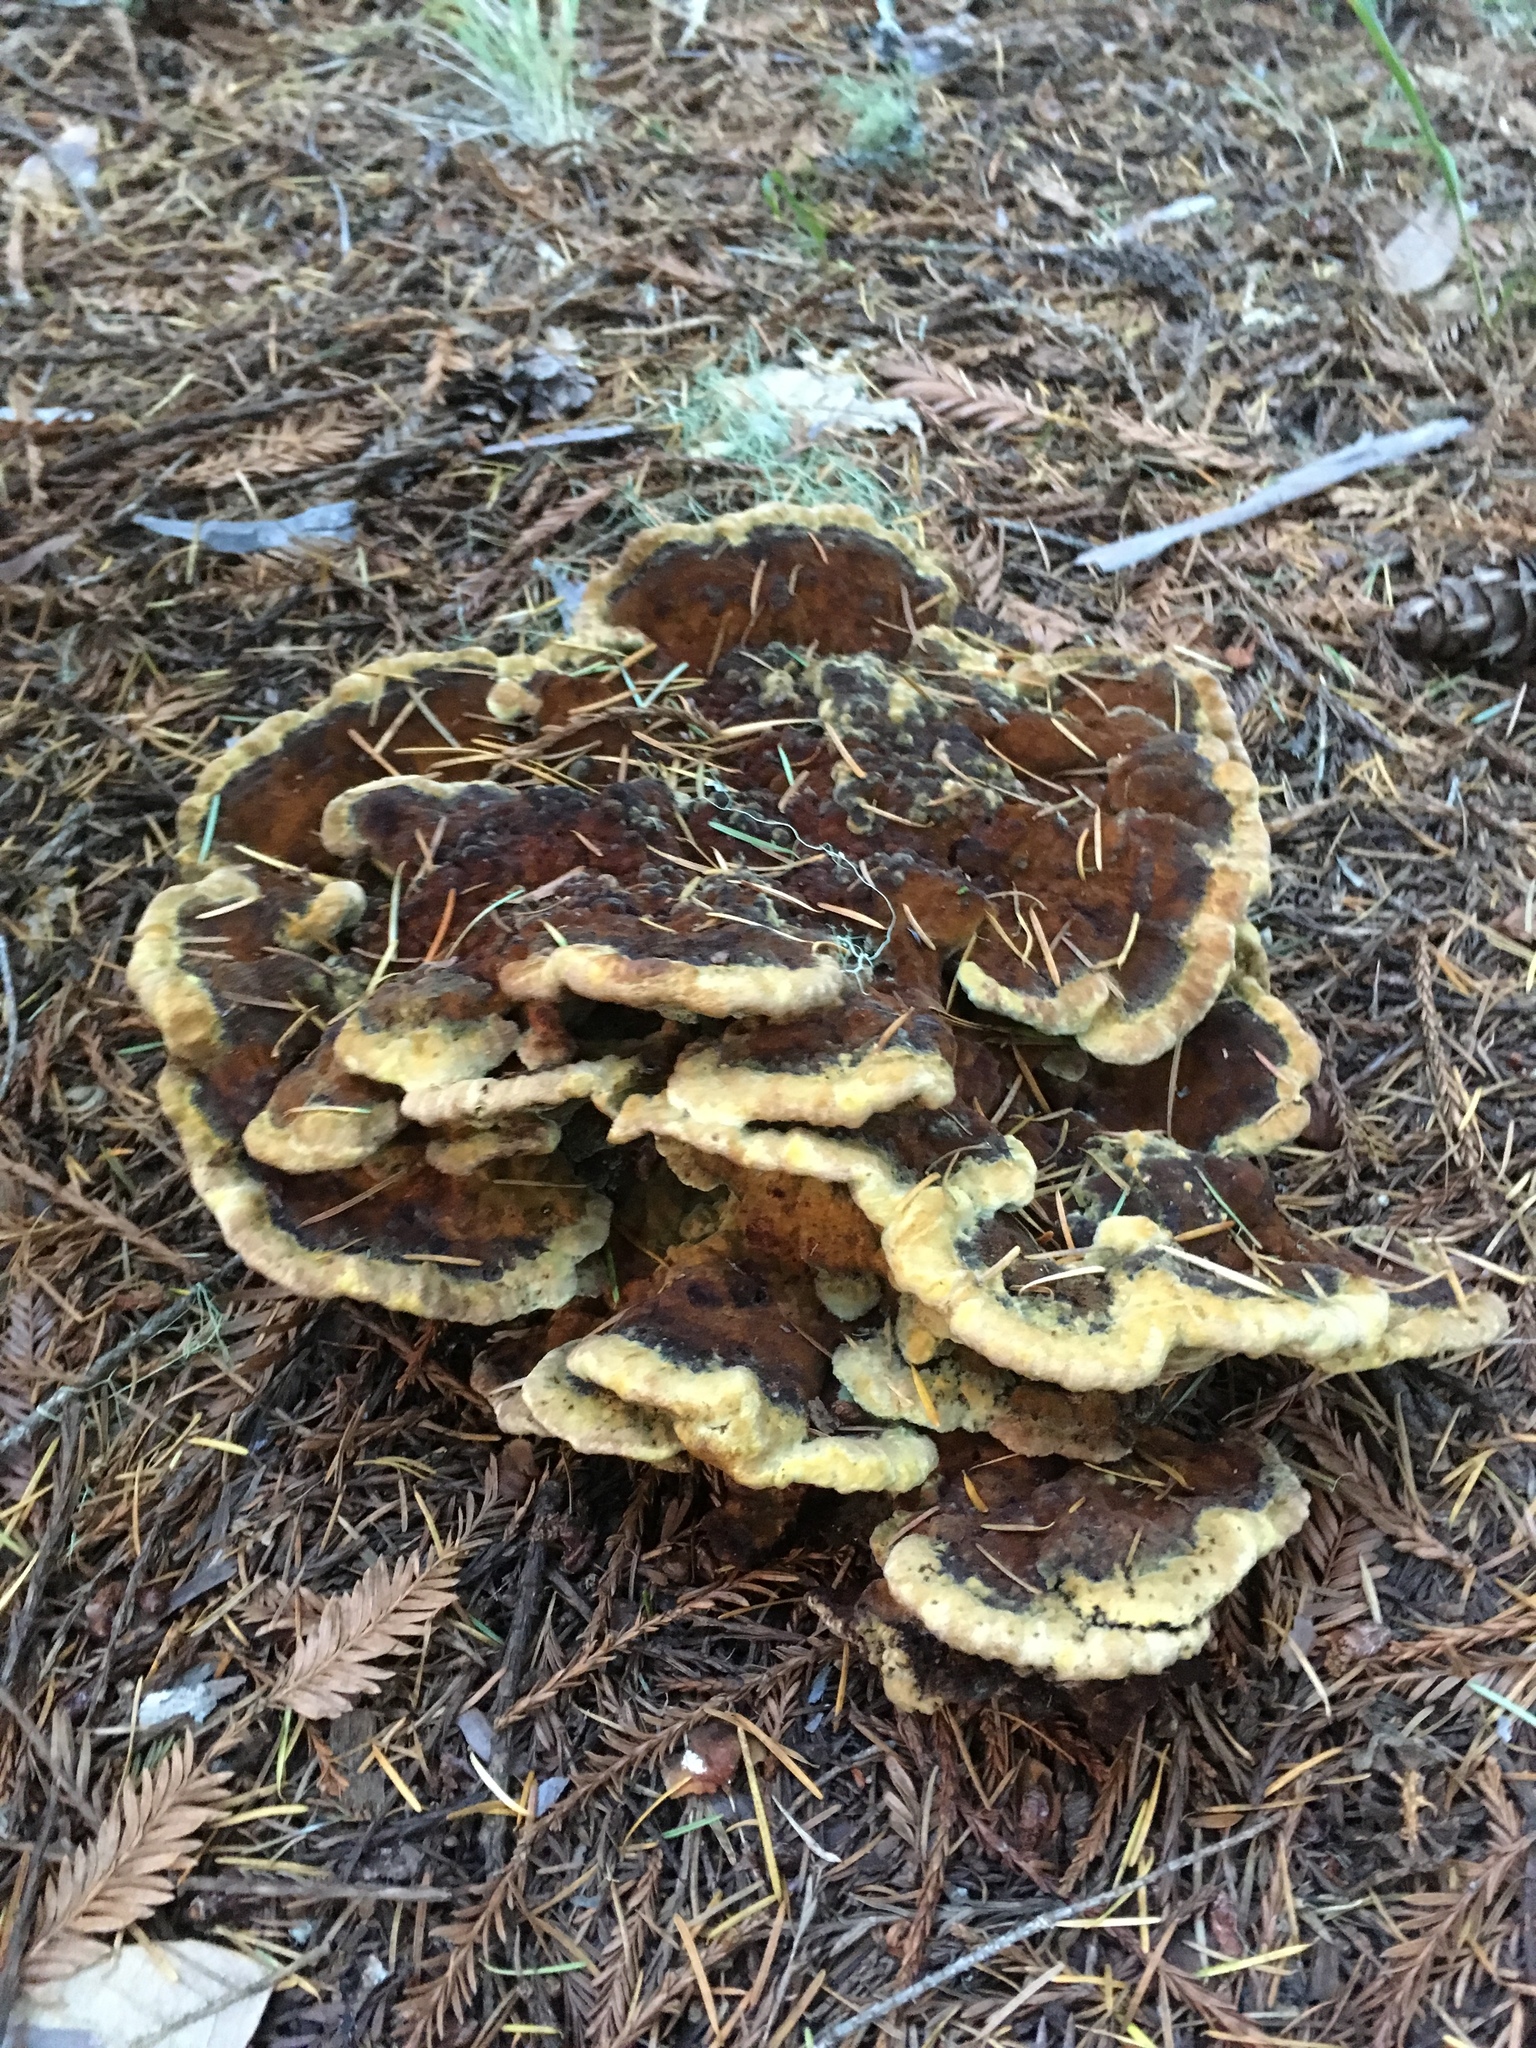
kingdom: Fungi
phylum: Basidiomycota
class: Agaricomycetes
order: Polyporales
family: Laetiporaceae
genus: Phaeolus
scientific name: Phaeolus schweinitzii
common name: Dyer's mazegill
